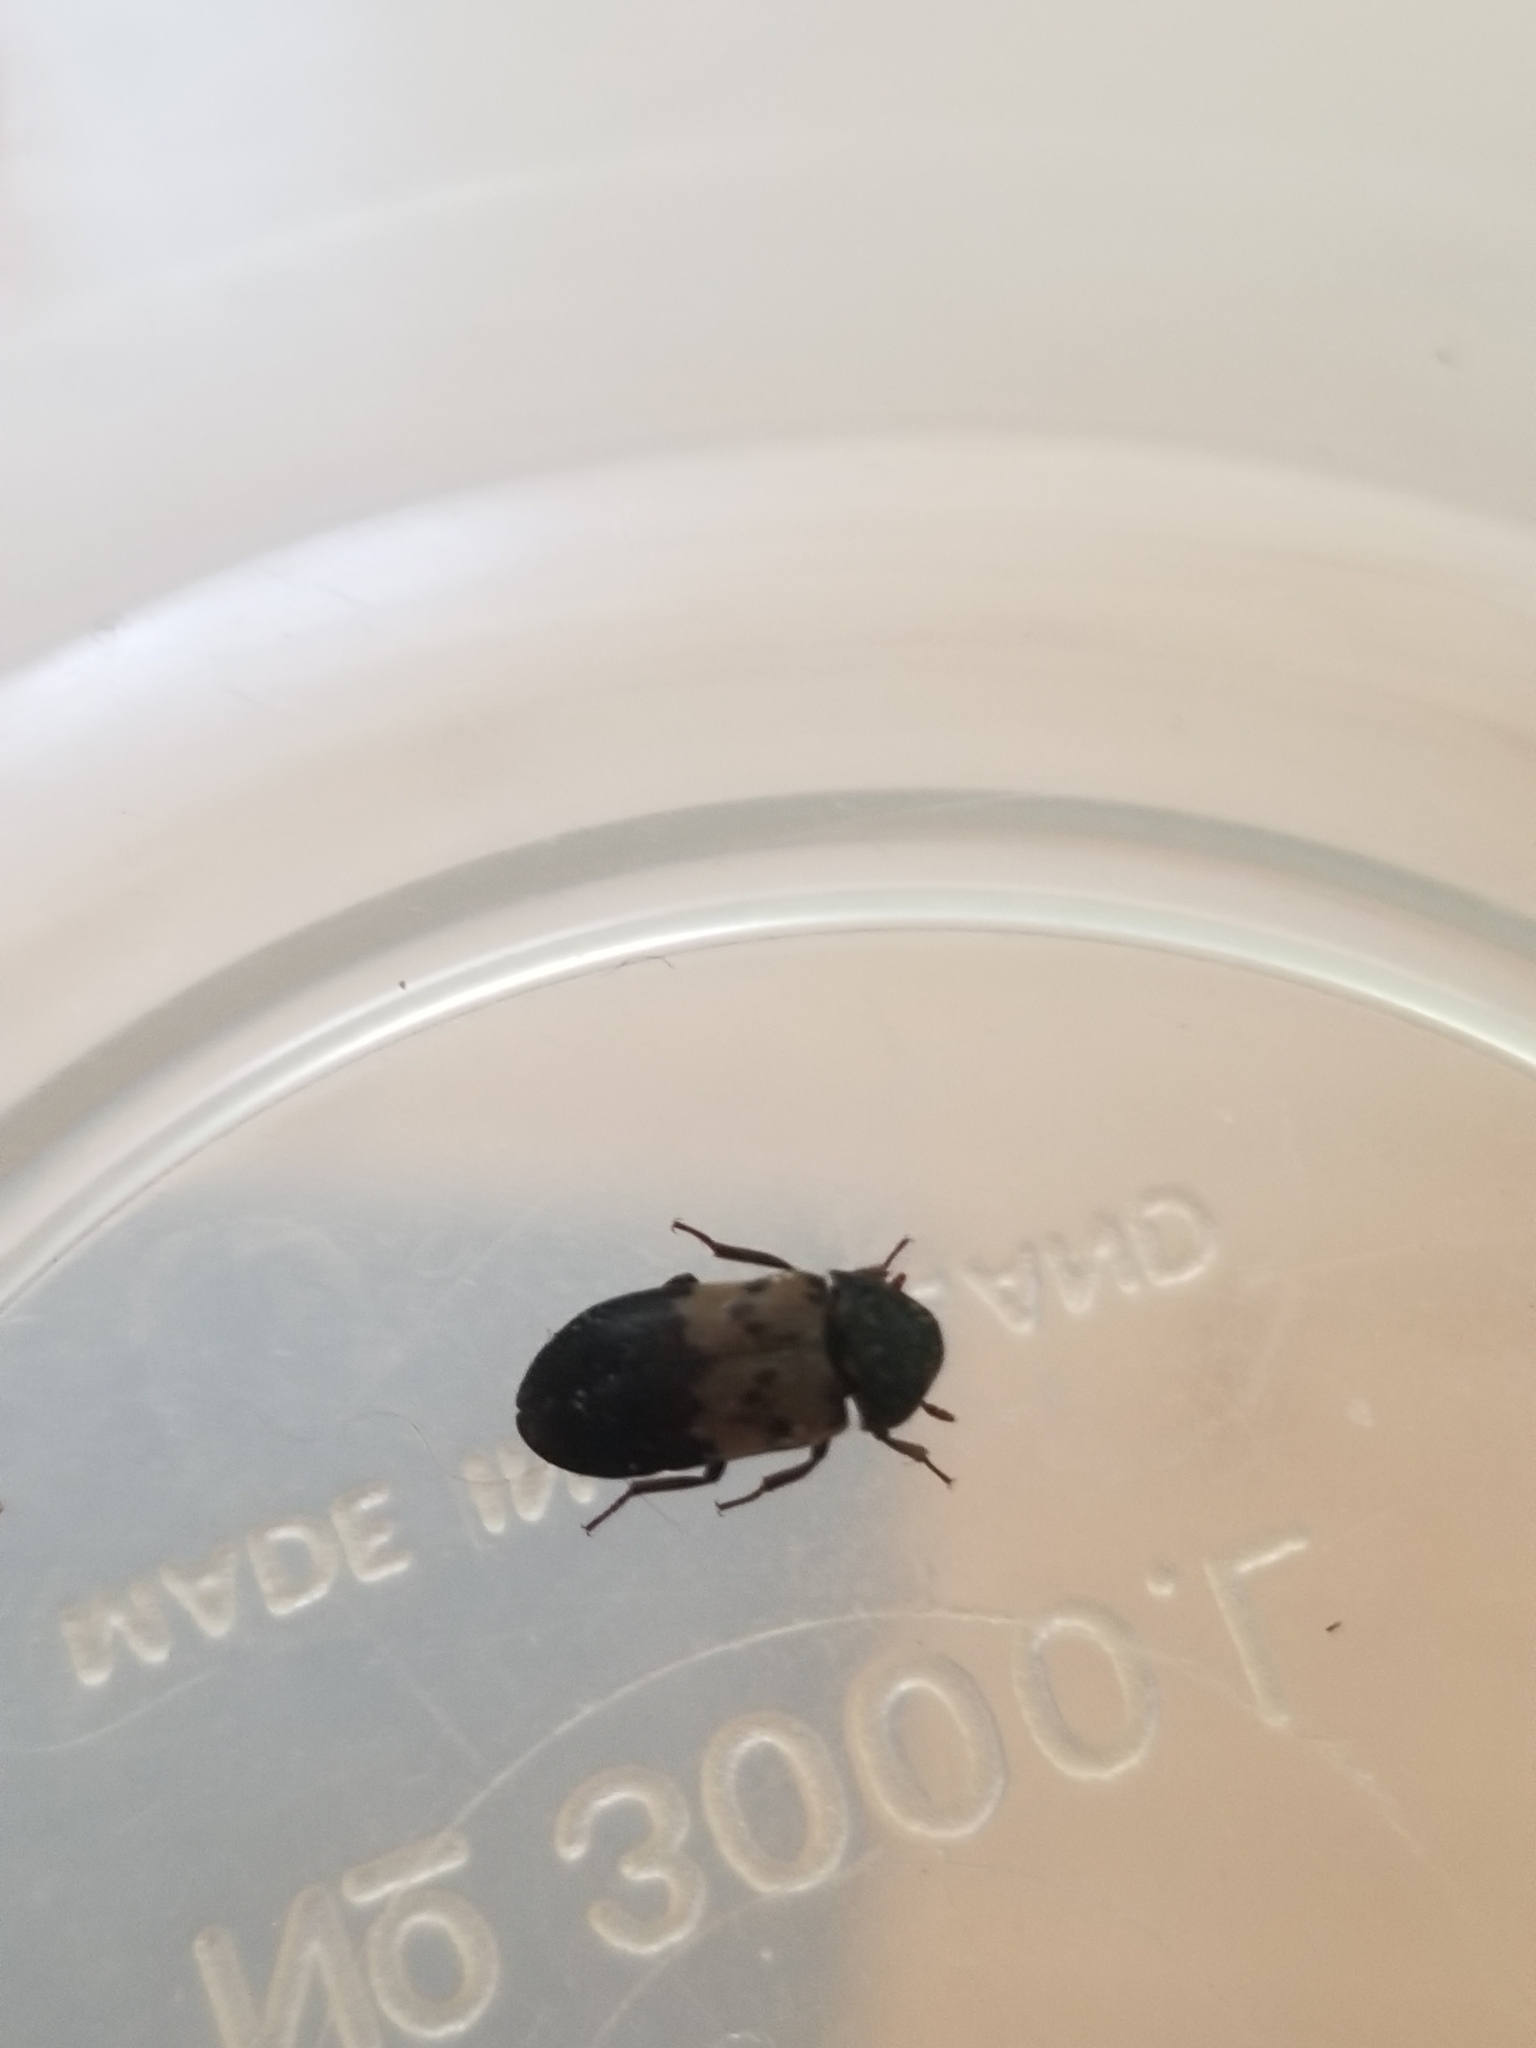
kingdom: Animalia
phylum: Arthropoda
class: Insecta
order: Coleoptera
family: Dermestidae
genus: Dermestes
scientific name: Dermestes lardarius
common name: Larder beetle
